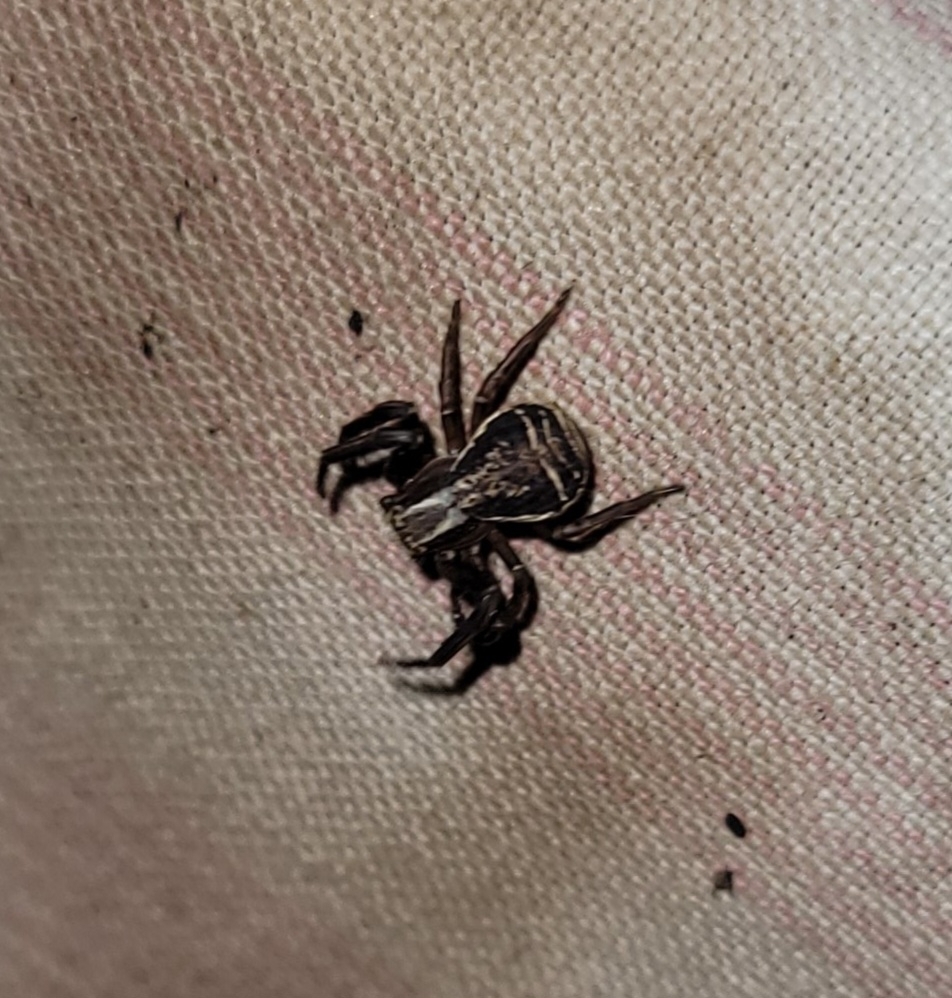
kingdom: Animalia
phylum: Arthropoda
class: Arachnida
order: Araneae
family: Thomisidae
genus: Xysticus
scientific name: Xysticus ulmi
